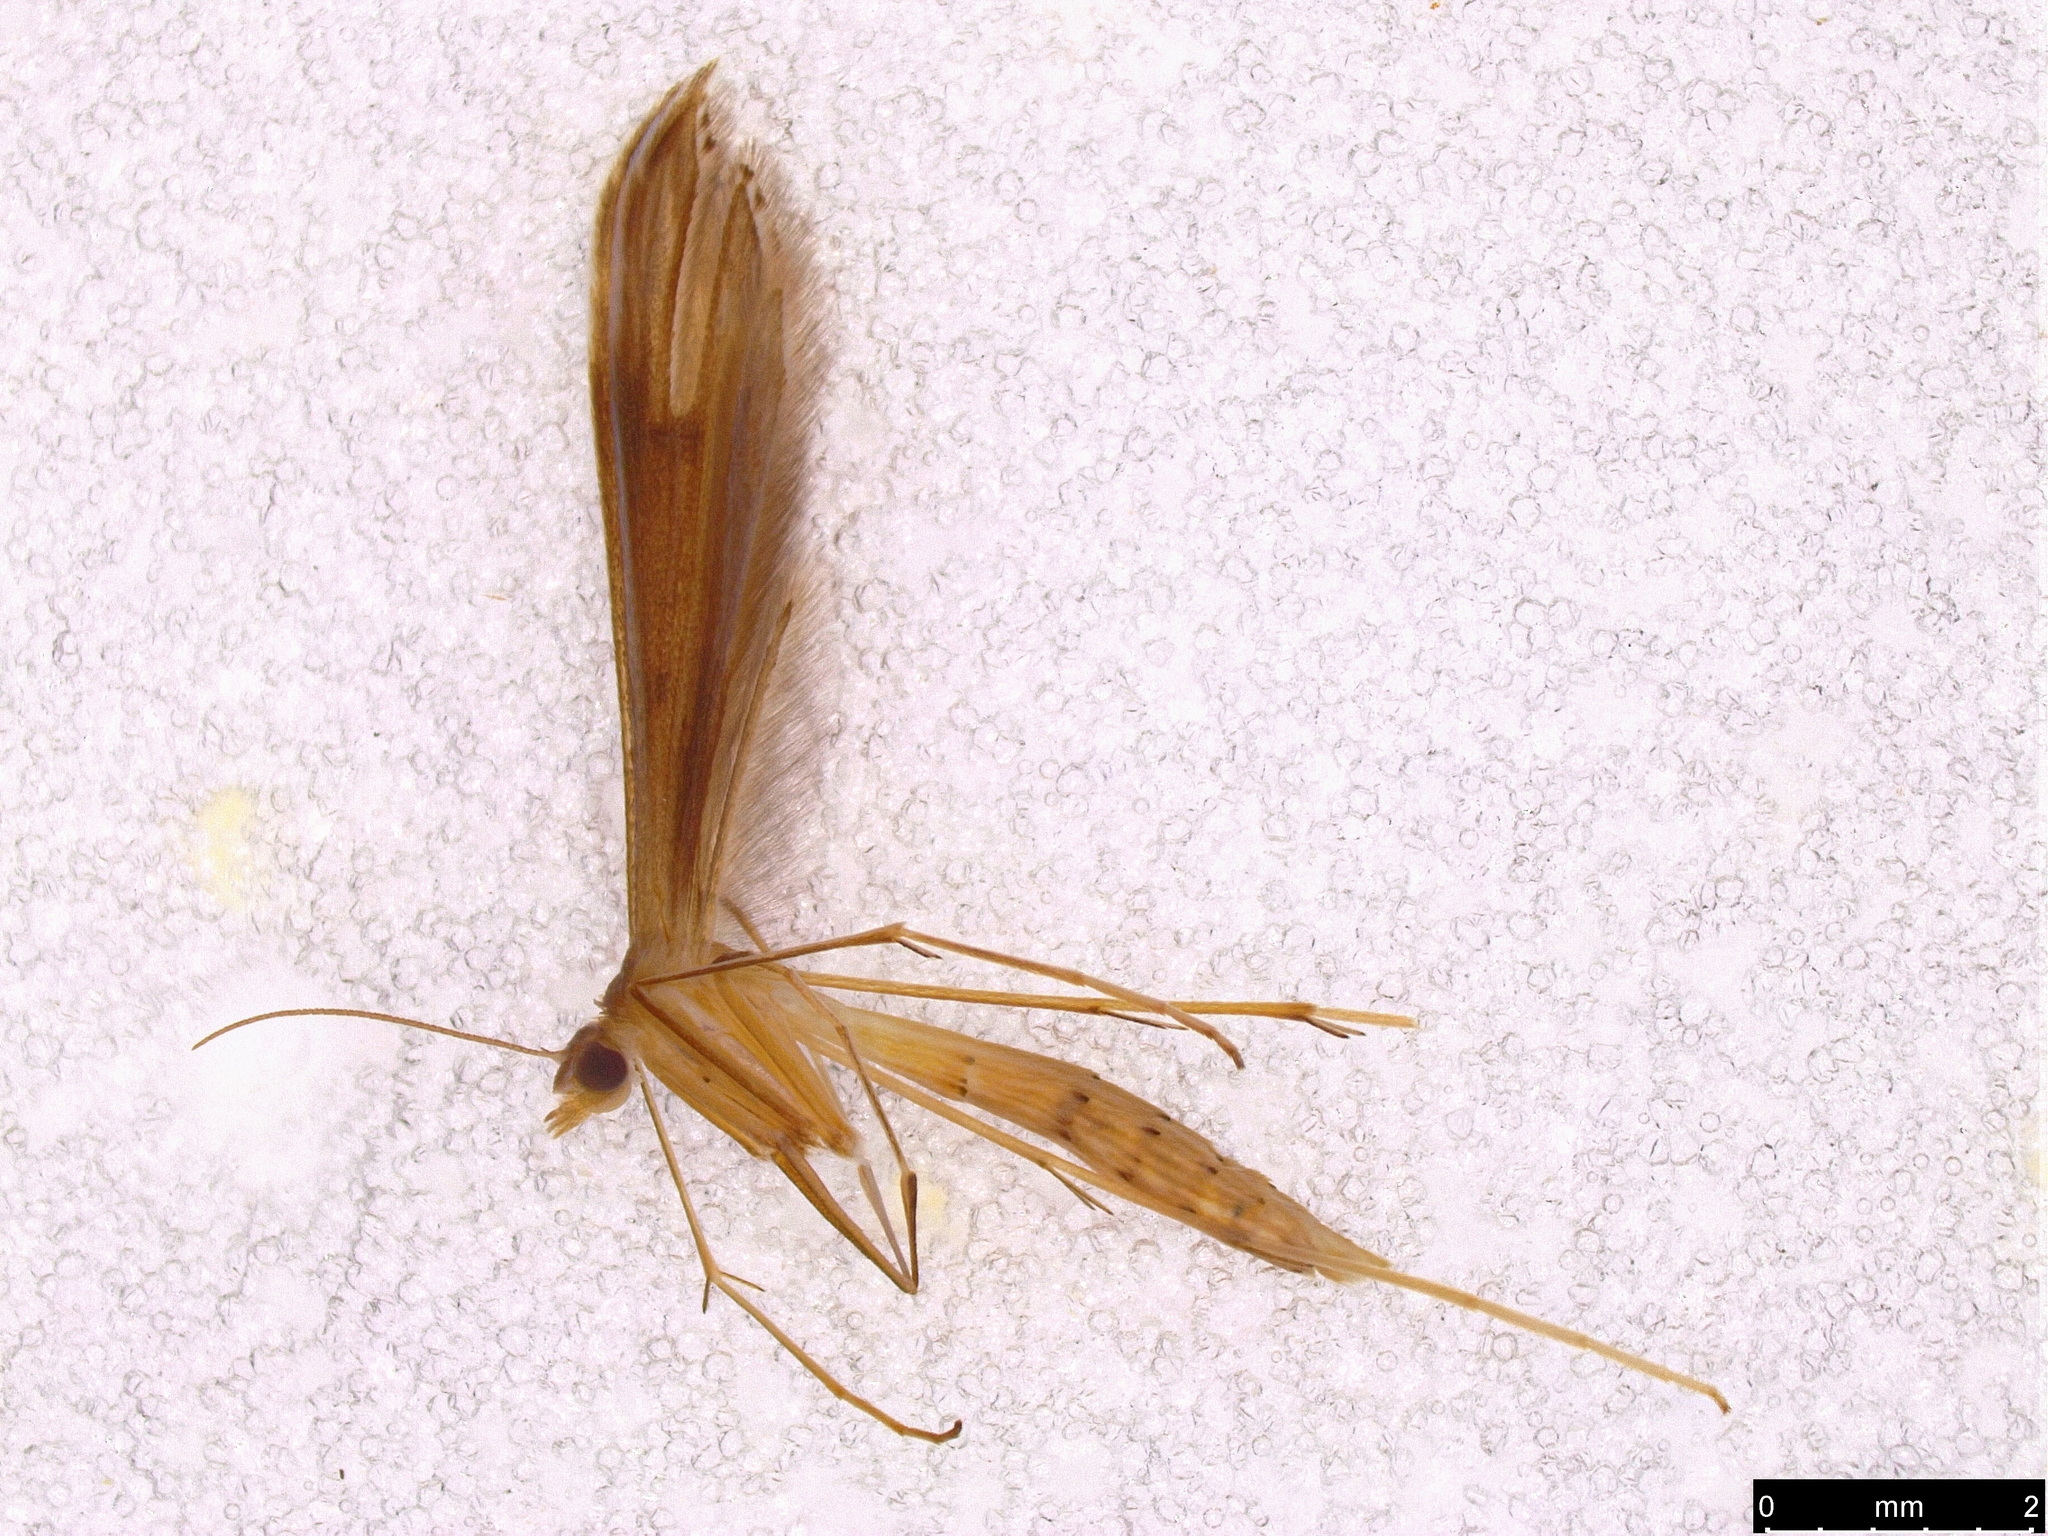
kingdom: Animalia
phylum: Arthropoda
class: Insecta
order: Lepidoptera
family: Pterophoridae
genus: Stenoptilia
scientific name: Stenoptilia zophodactylus
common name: Dowdy plume
